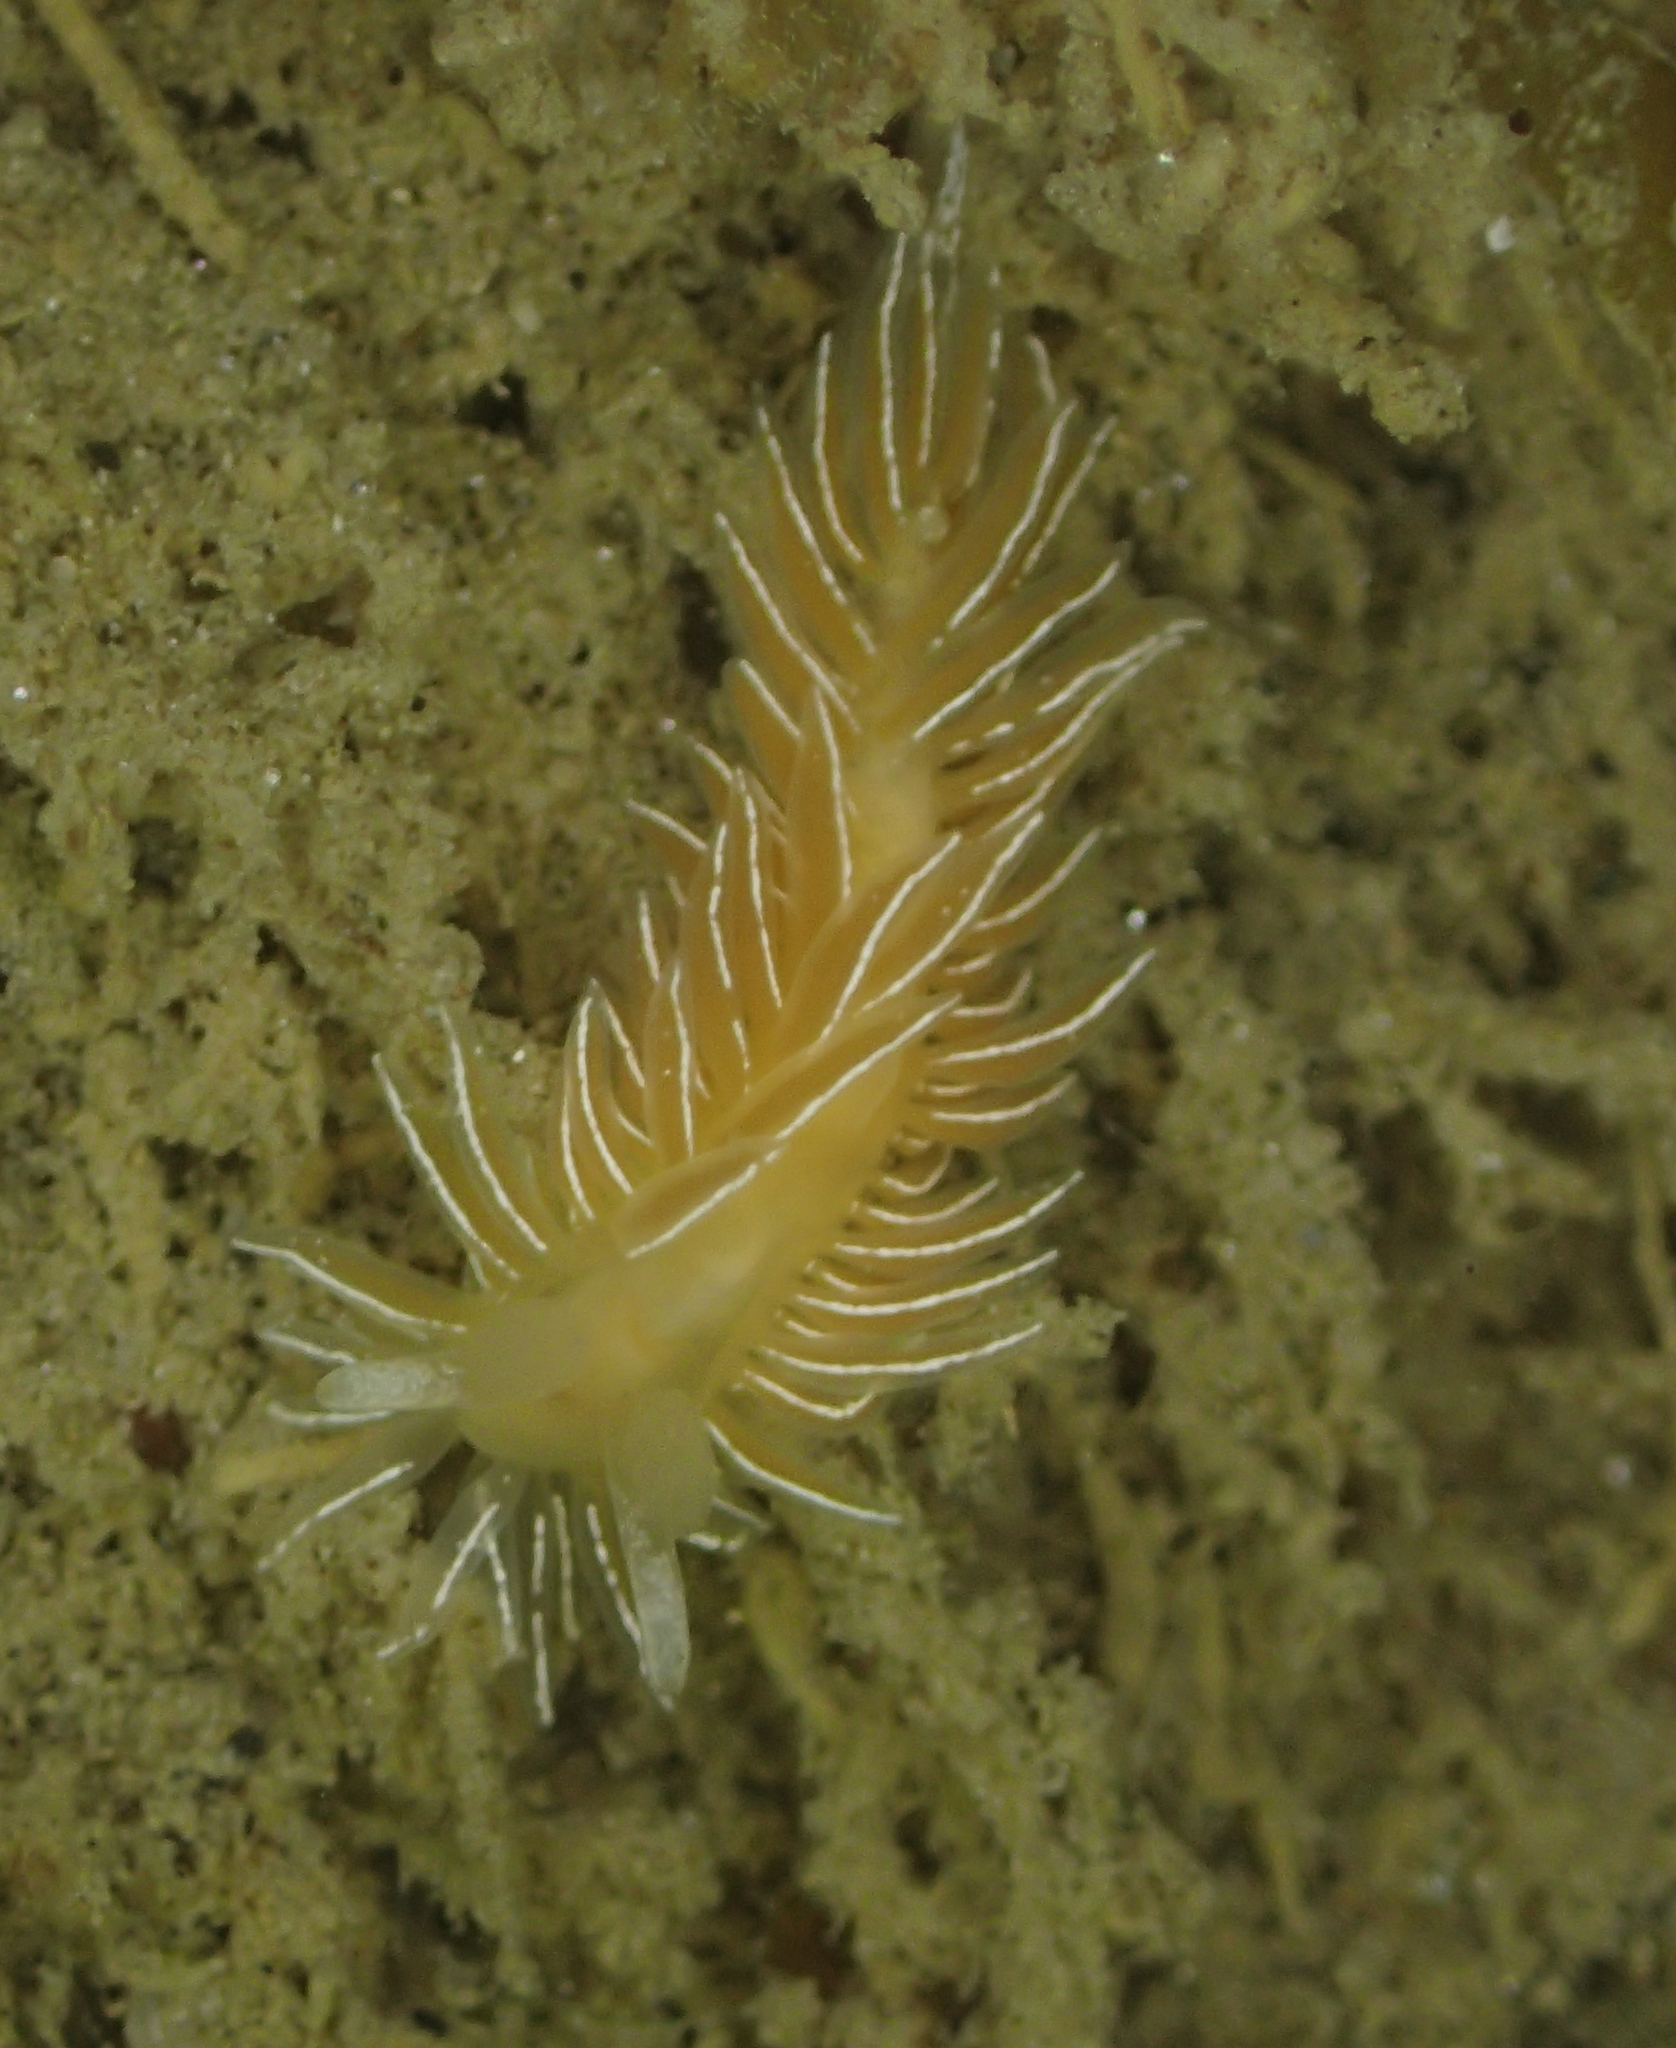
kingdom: Animalia
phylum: Mollusca
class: Gastropoda
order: Nudibranchia
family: Proctonotidae
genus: Caldukia
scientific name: Caldukia albolineata
